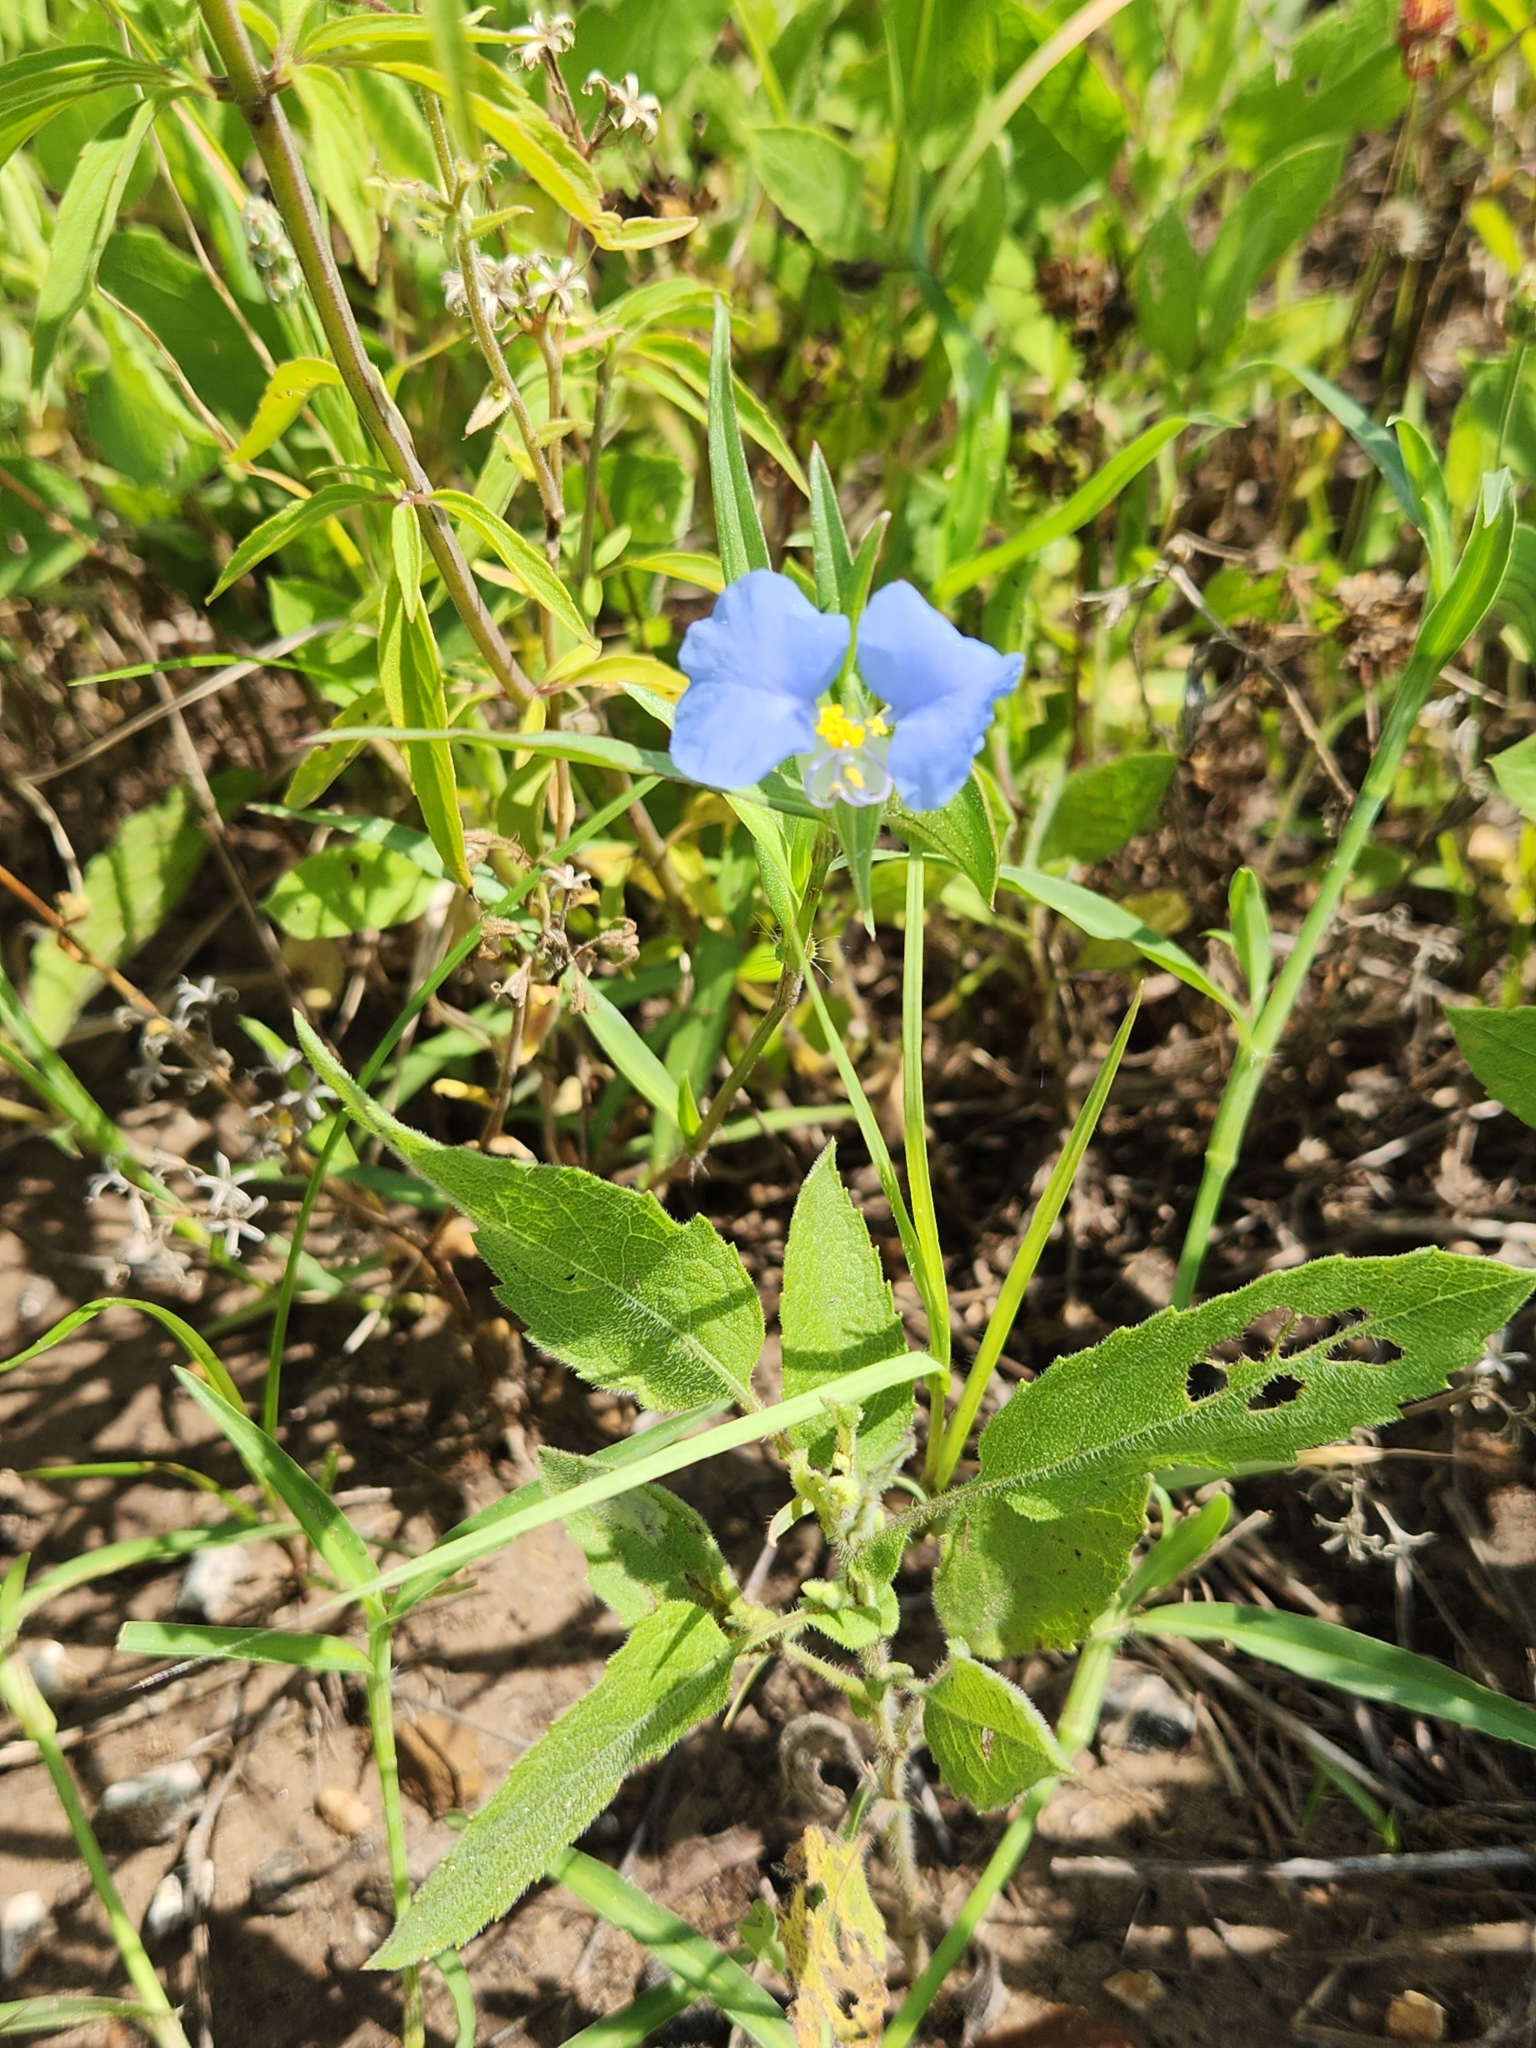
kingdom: Plantae
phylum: Tracheophyta
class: Liliopsida
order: Commelinales
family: Commelinaceae
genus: Commelina
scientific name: Commelina erecta
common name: Blousel blommetjie
